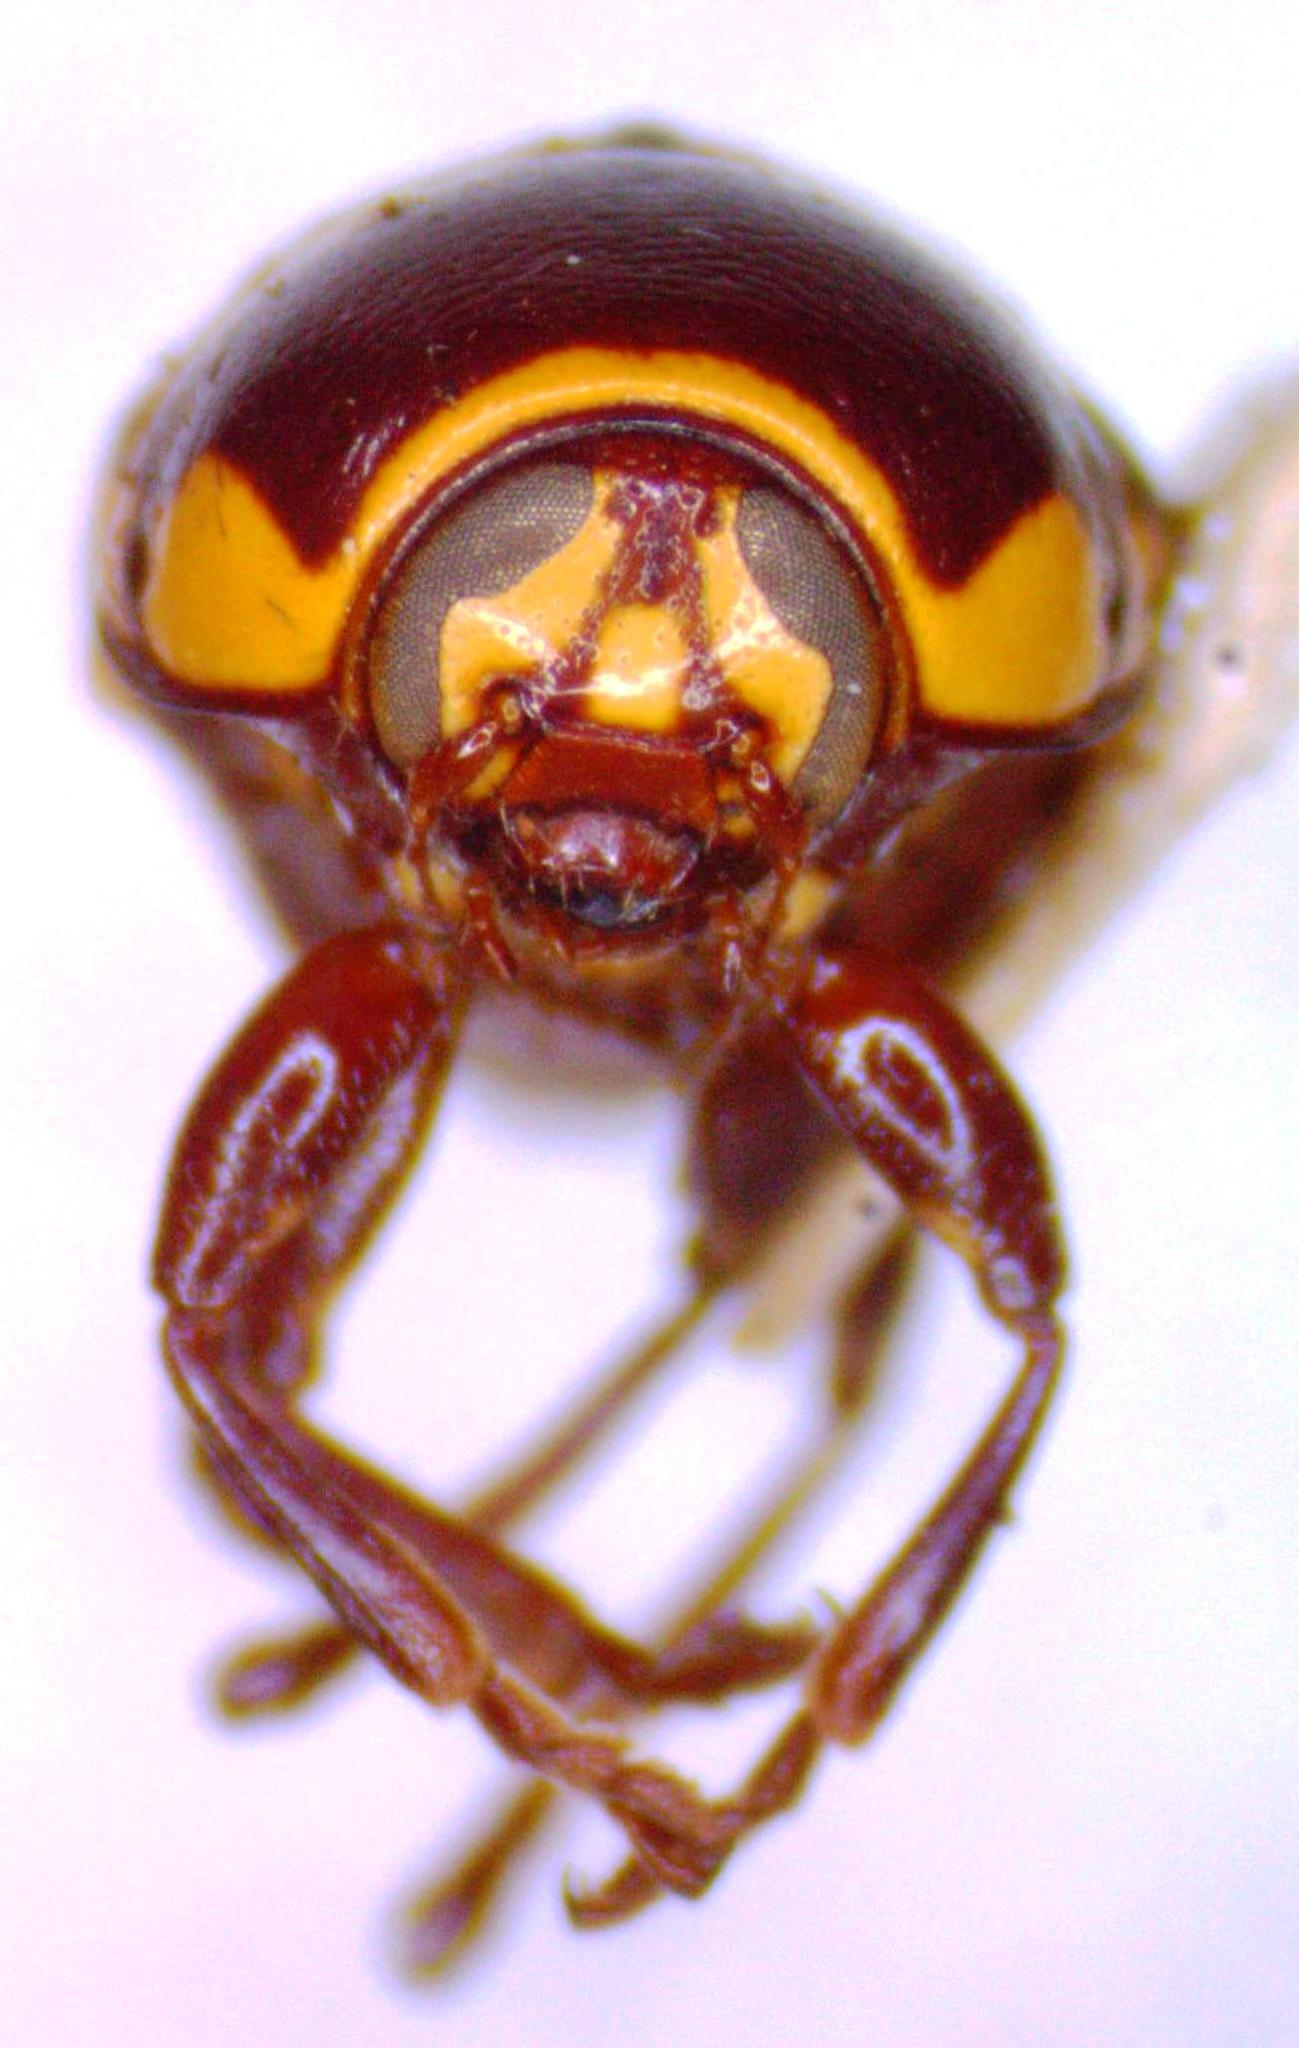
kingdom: Animalia
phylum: Arthropoda
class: Insecta
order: Coleoptera
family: Chrysomelidae
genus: Cryptocephalus
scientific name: Cryptocephalus irroratus
